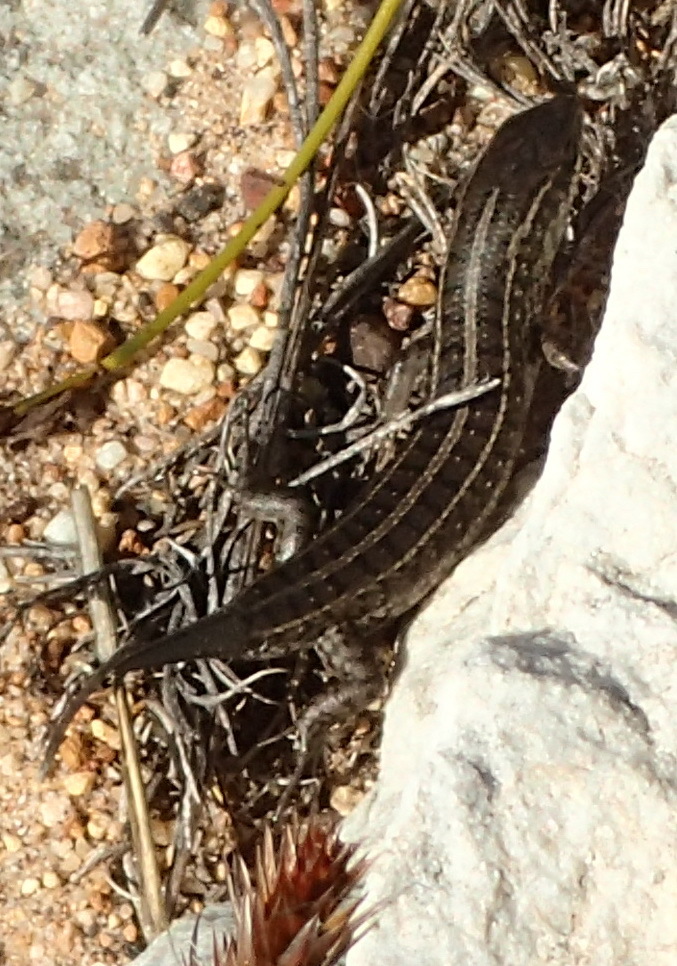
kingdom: Animalia
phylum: Chordata
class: Squamata
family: Scincidae
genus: Trachylepis
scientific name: Trachylepis capensis
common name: Cape skink
